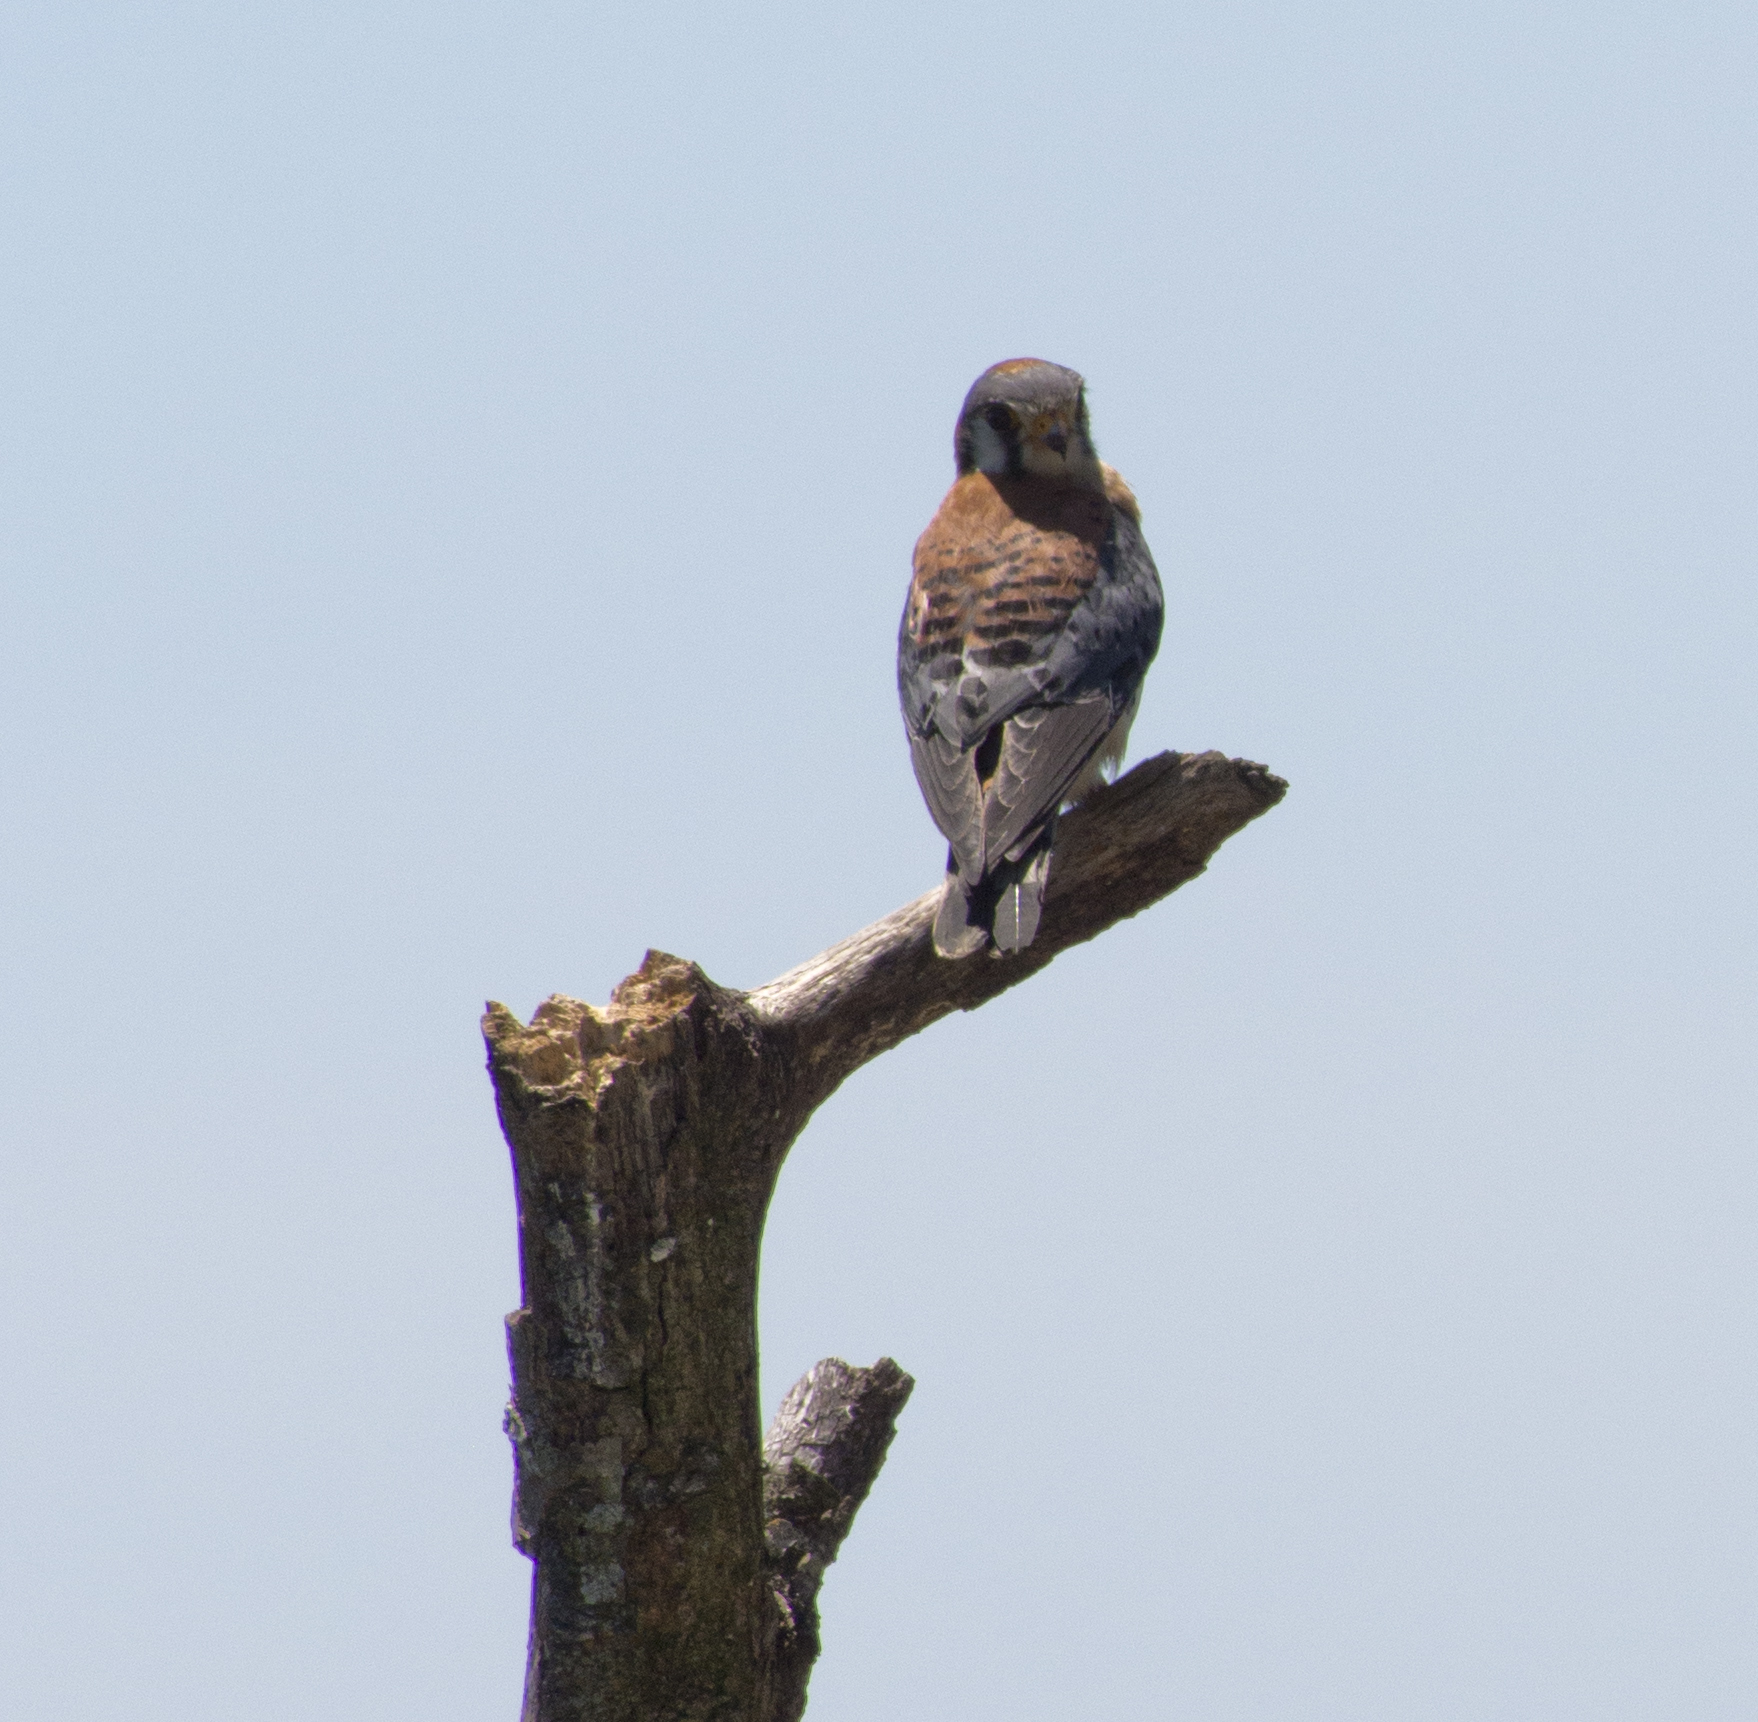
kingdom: Animalia
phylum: Chordata
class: Aves
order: Falconiformes
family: Falconidae
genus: Falco
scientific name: Falco sparverius
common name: American kestrel
